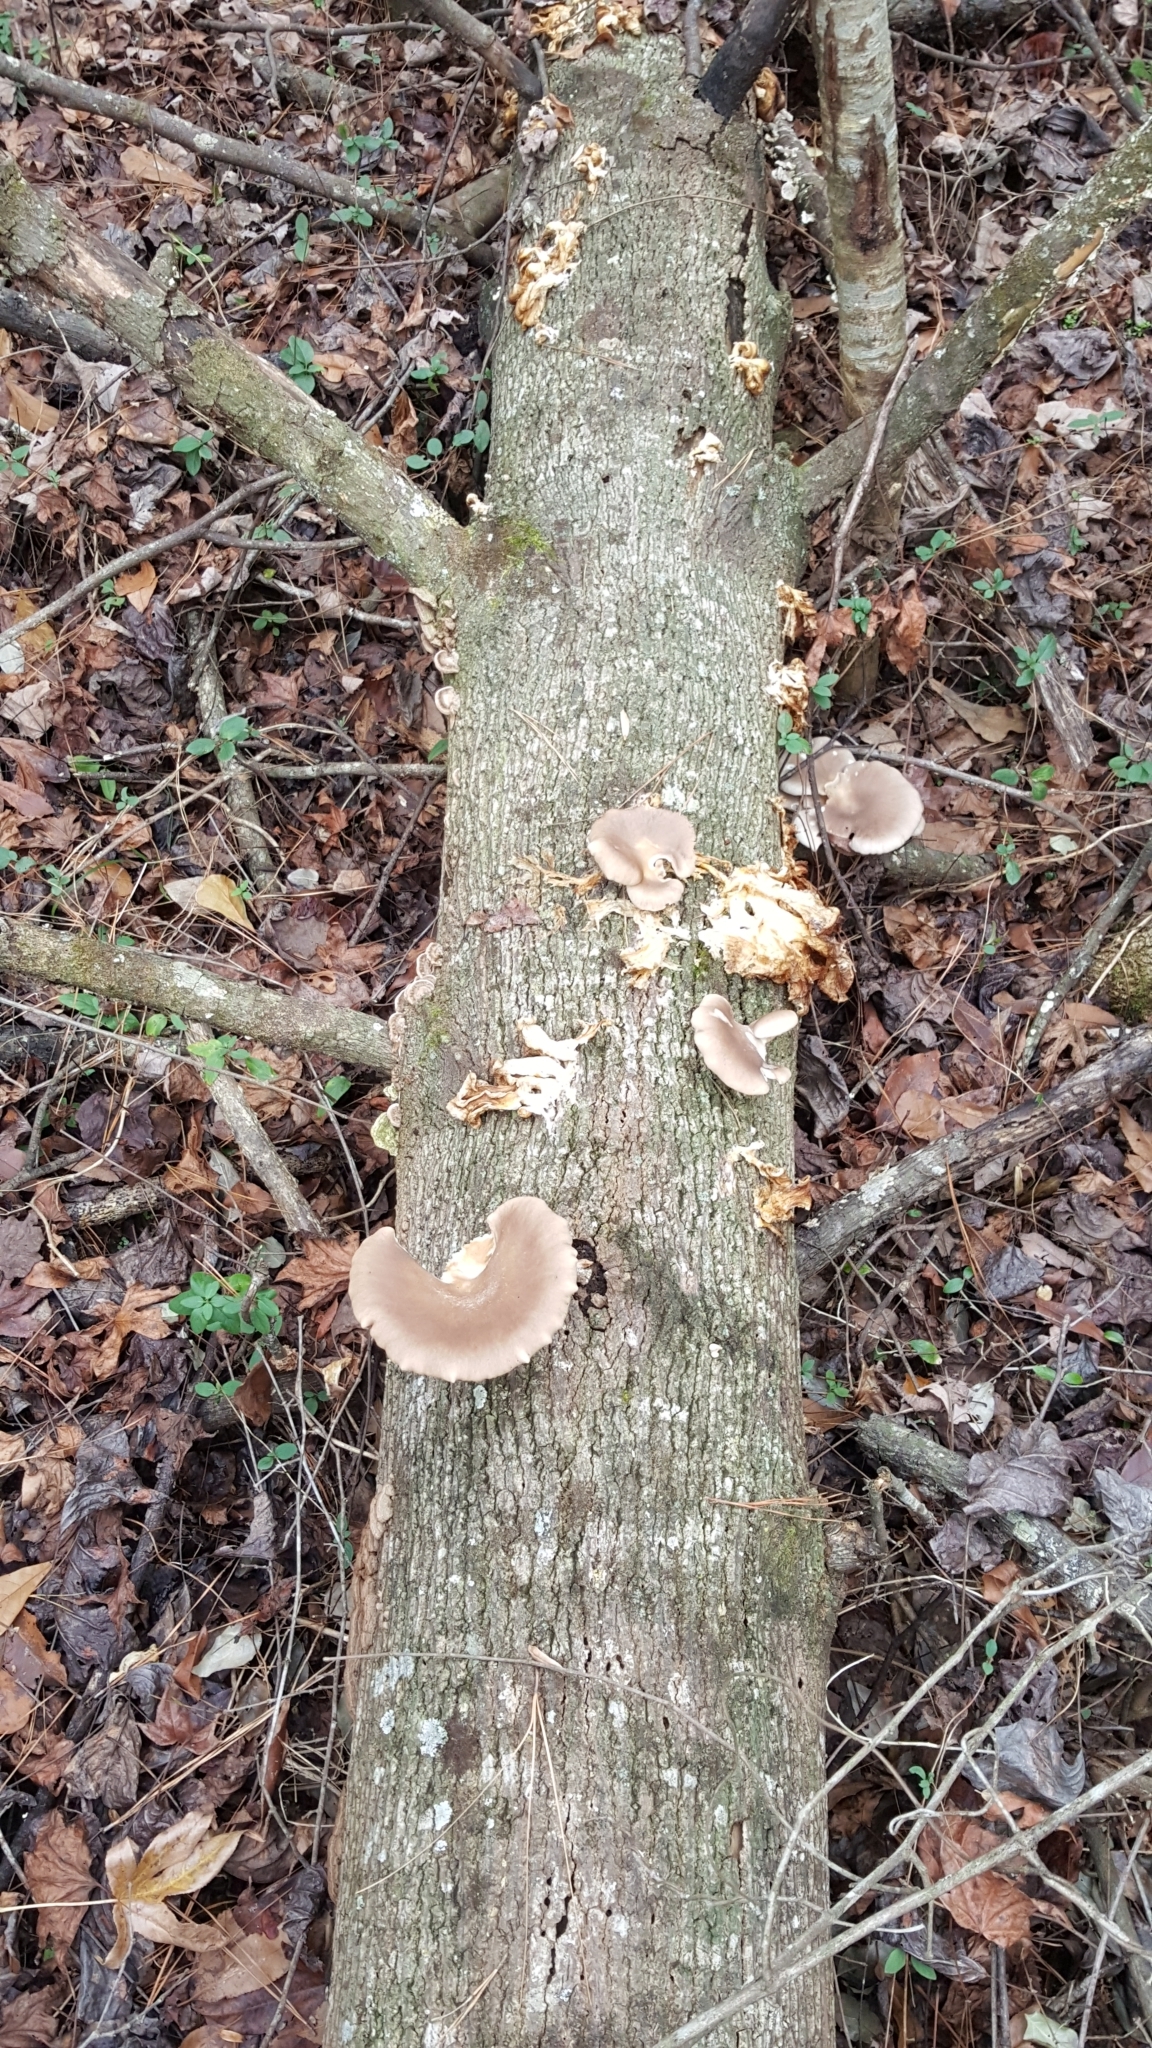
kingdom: Fungi
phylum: Basidiomycota
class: Agaricomycetes
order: Agaricales
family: Pleurotaceae
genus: Pleurotus
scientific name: Pleurotus ostreatus
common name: Oyster mushroom
